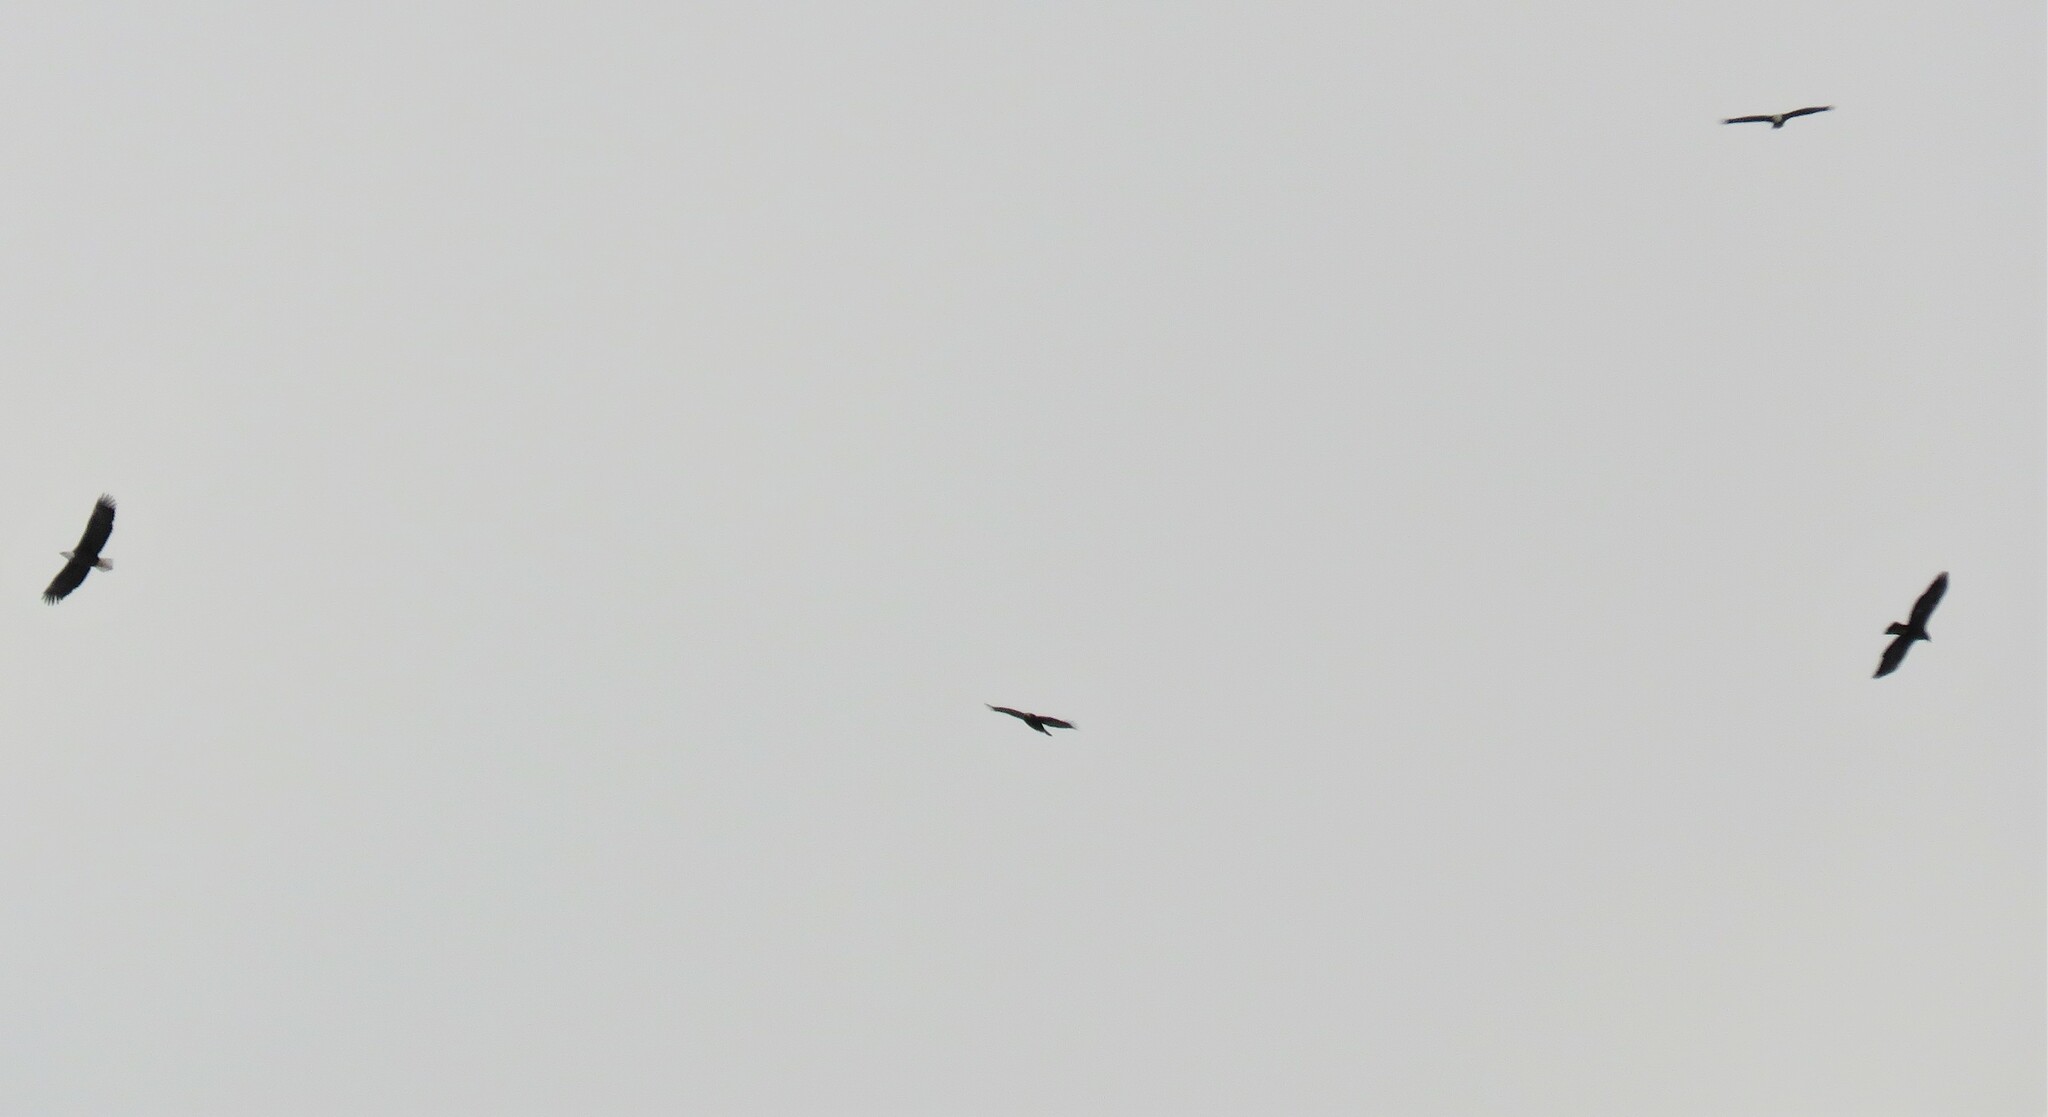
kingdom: Animalia
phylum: Chordata
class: Aves
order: Accipitriformes
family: Accipitridae
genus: Aquila
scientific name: Aquila chrysaetos
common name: Golden eagle
